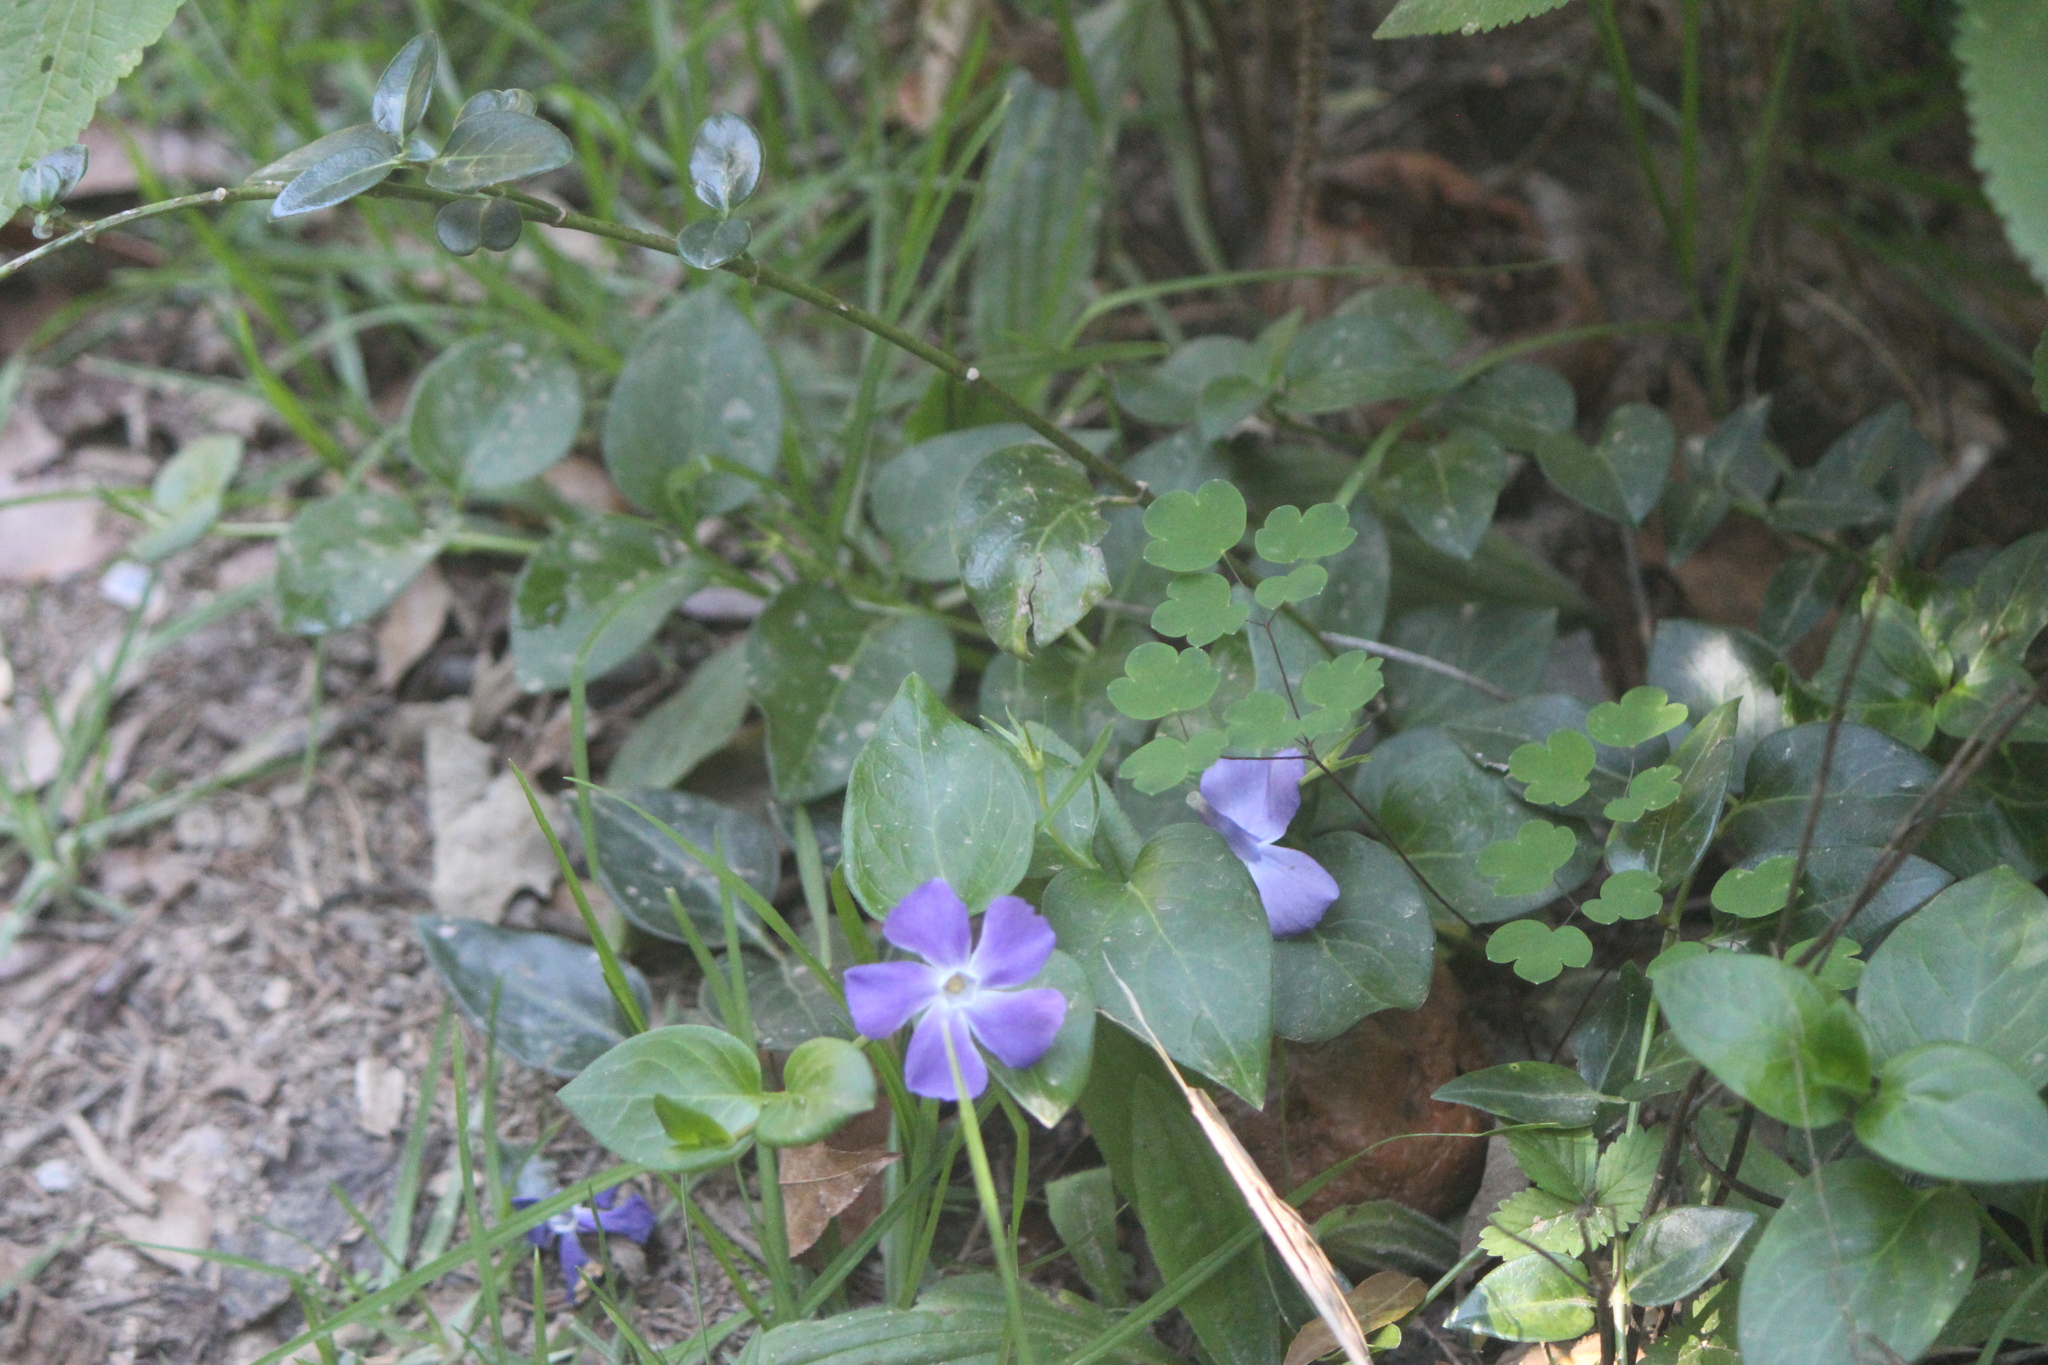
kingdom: Plantae
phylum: Tracheophyta
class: Magnoliopsida
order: Gentianales
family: Apocynaceae
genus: Vinca
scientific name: Vinca major
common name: Greater periwinkle
